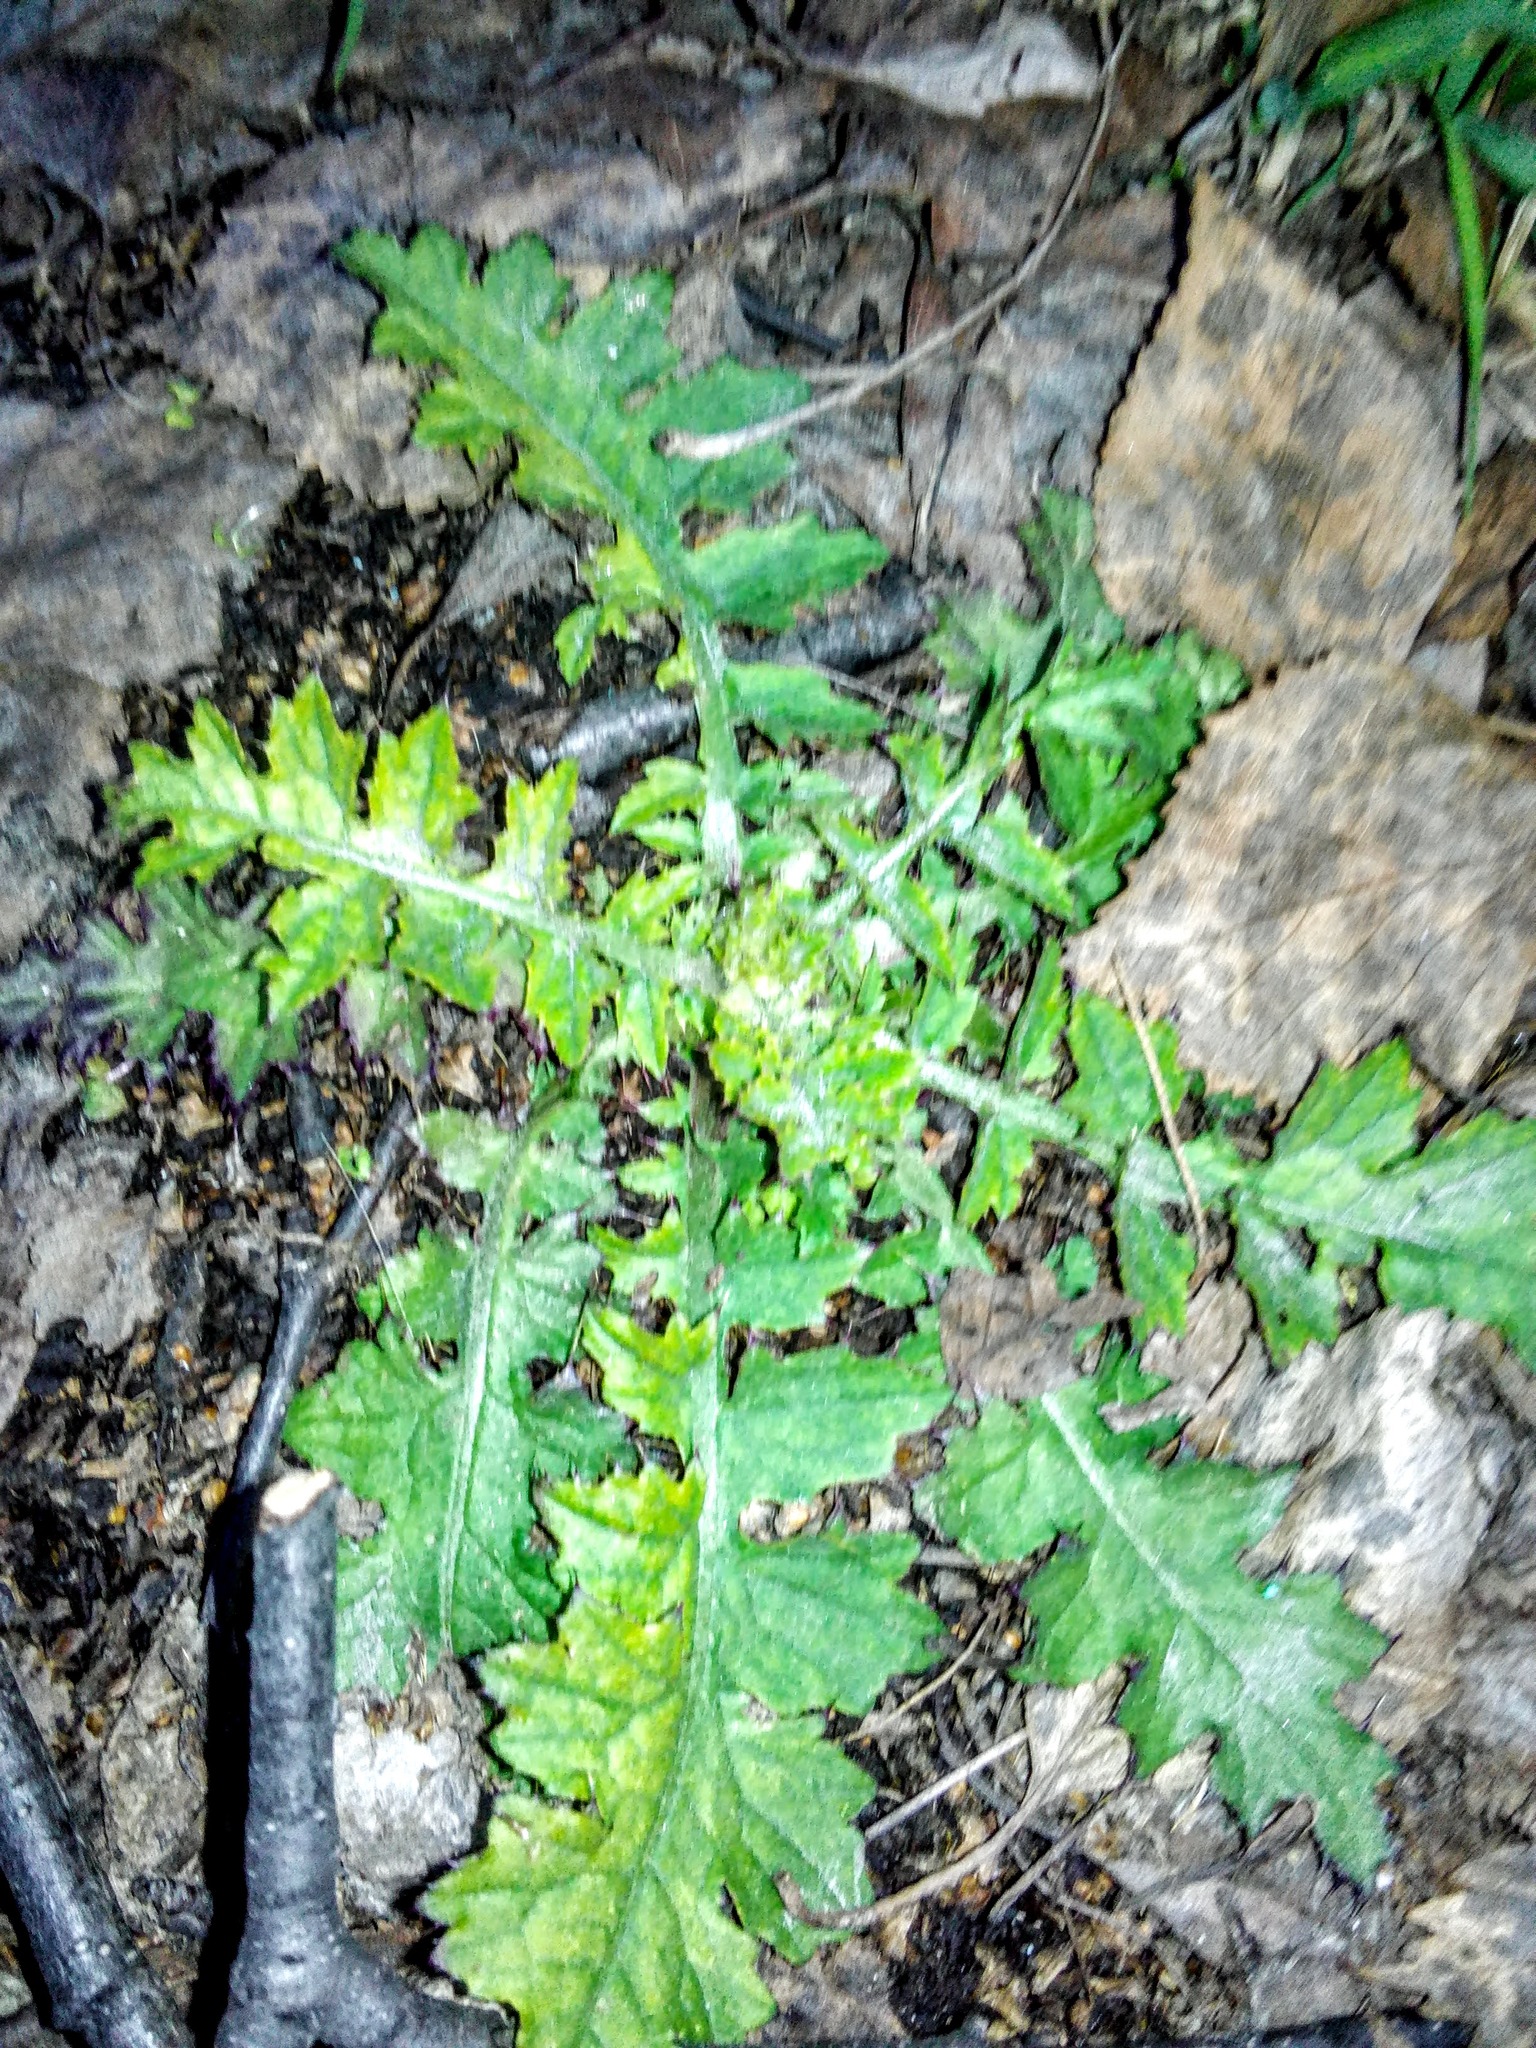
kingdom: Plantae
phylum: Tracheophyta
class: Magnoliopsida
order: Asterales
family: Asteraceae
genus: Carduus
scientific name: Carduus crispus
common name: Welted thistle
